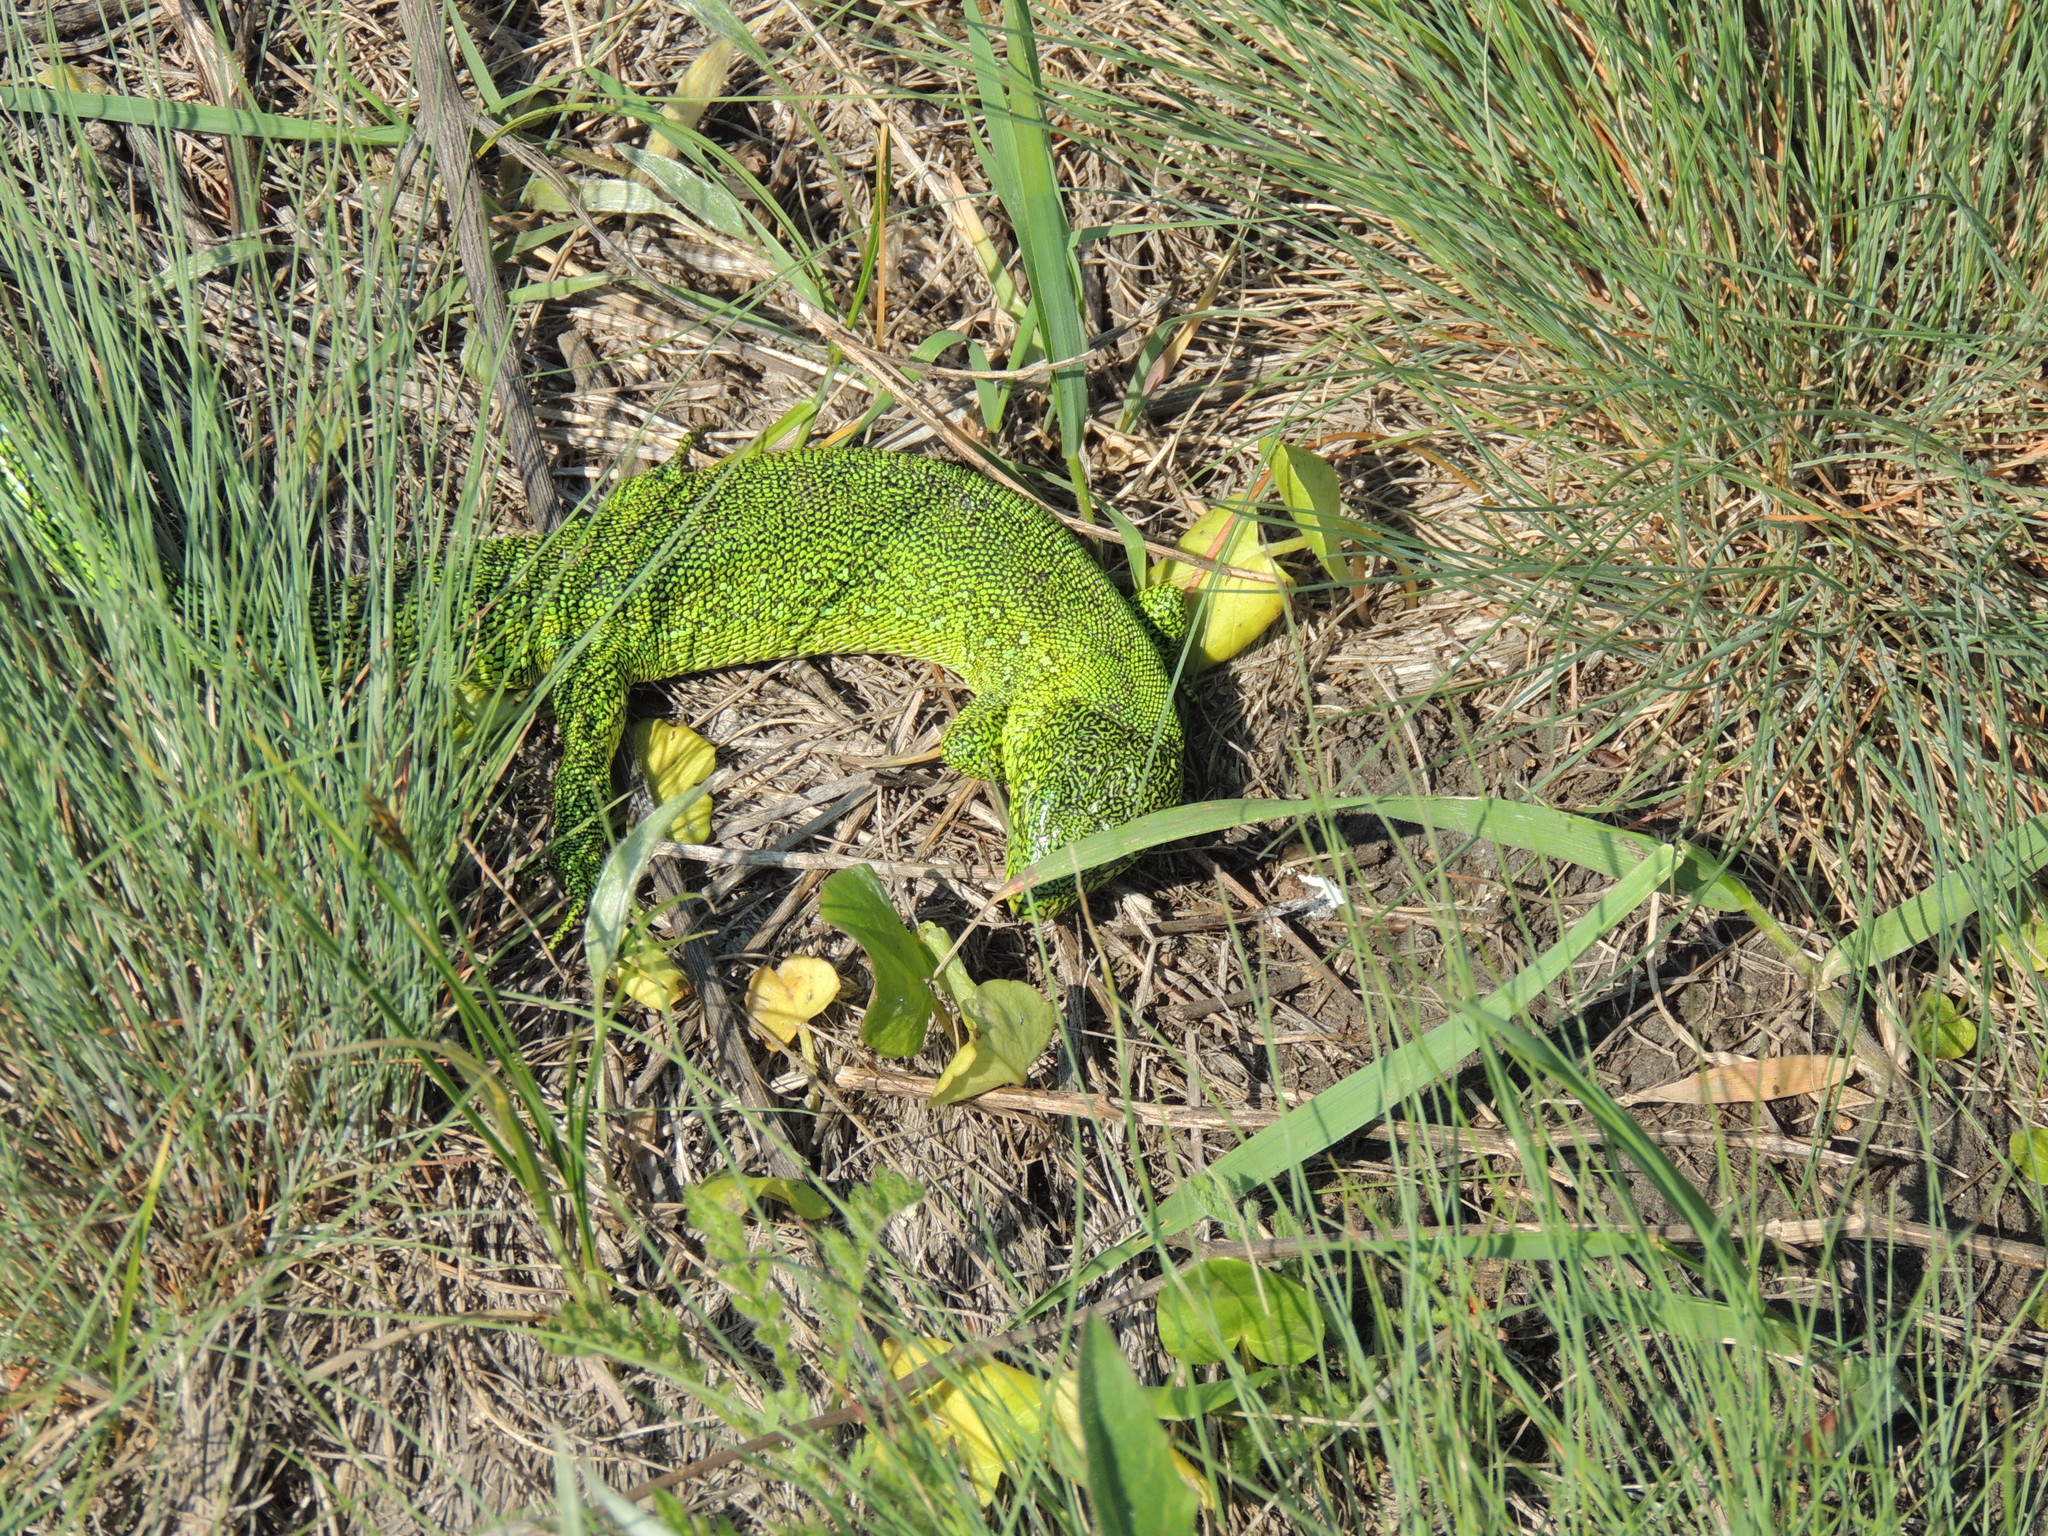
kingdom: Animalia
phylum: Chordata
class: Squamata
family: Lacertidae
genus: Lacerta
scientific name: Lacerta agilis
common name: Sand lizard
